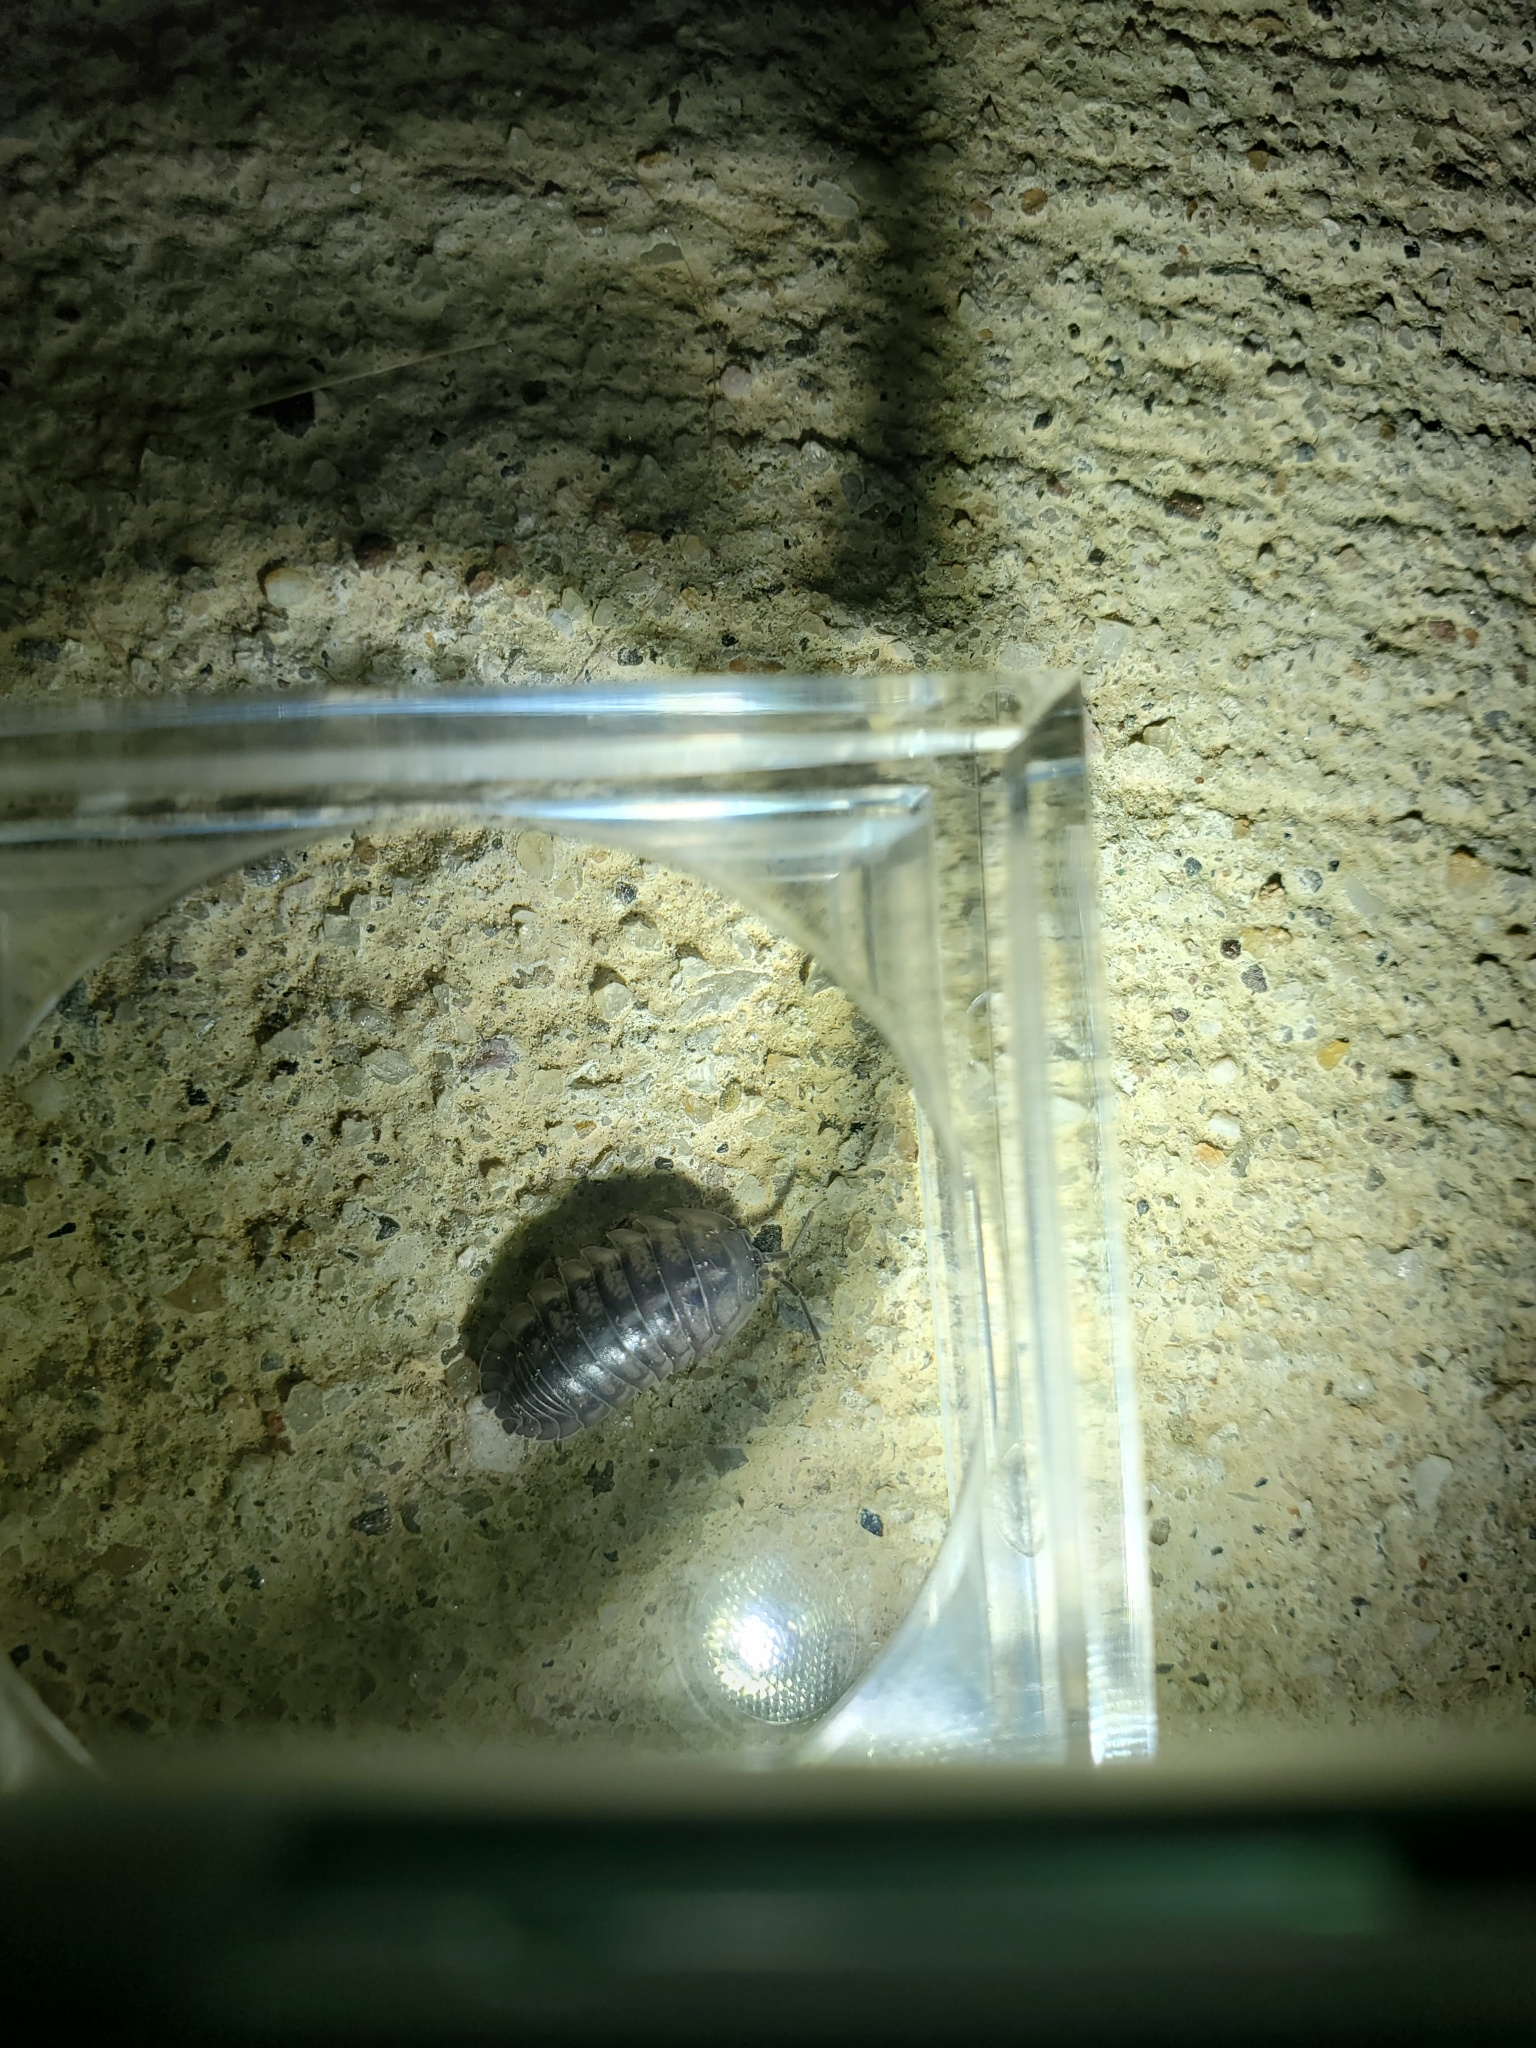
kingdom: Animalia
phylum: Arthropoda
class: Malacostraca
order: Isopoda
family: Armadillidiidae
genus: Armadillidium
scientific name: Armadillidium nasatum
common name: Isopod
